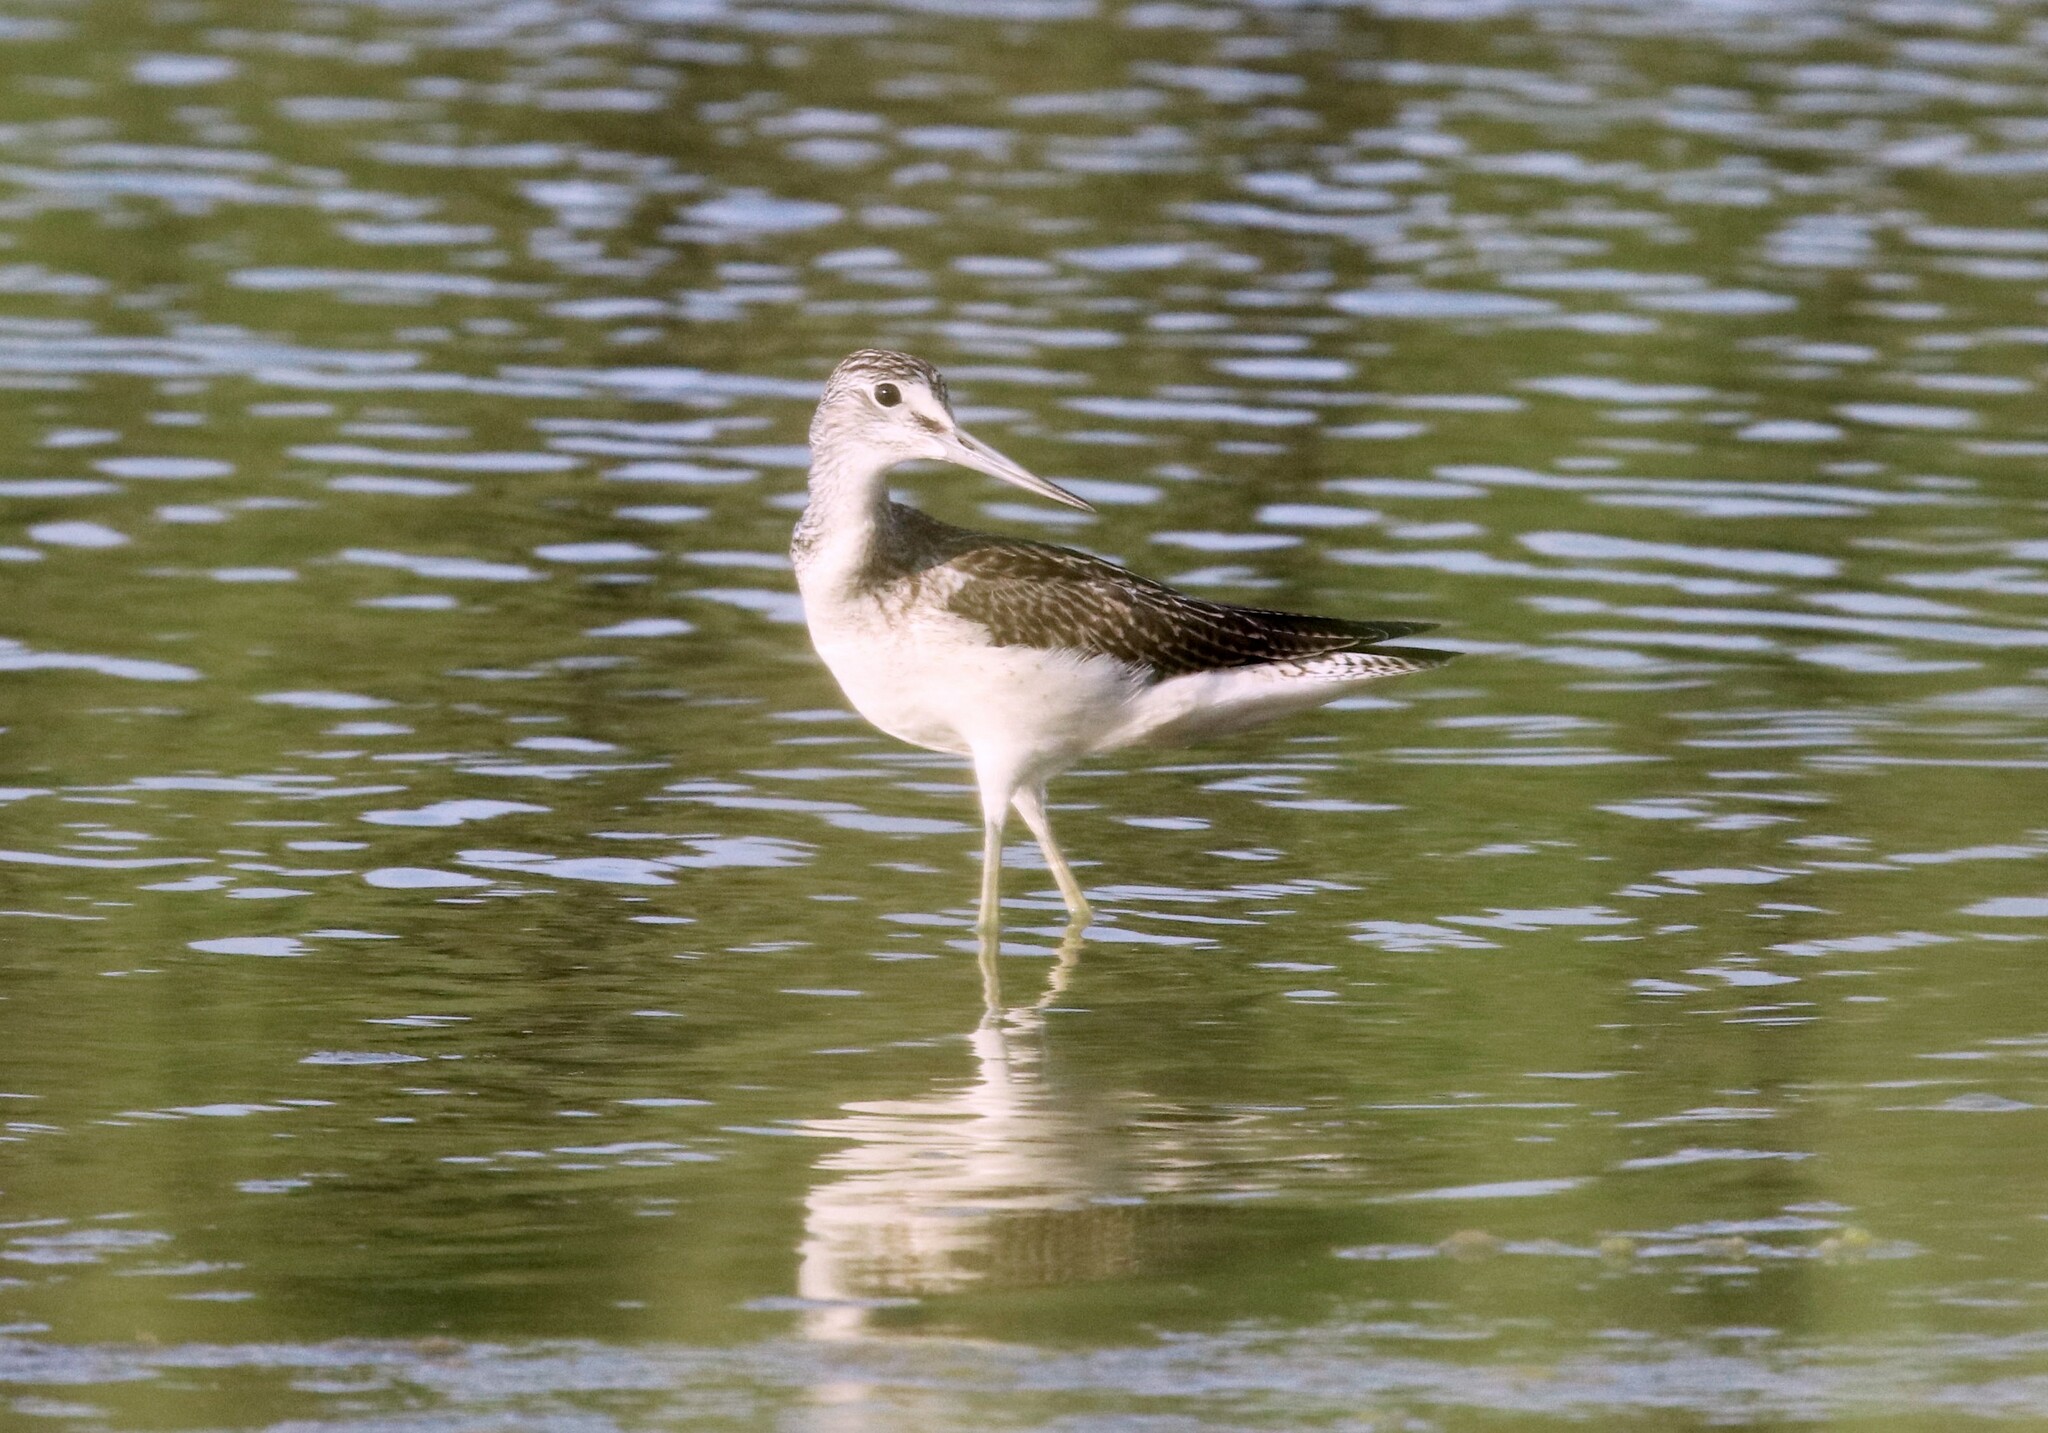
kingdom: Animalia
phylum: Chordata
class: Aves
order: Charadriiformes
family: Scolopacidae
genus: Tringa
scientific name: Tringa nebularia
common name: Common greenshank
